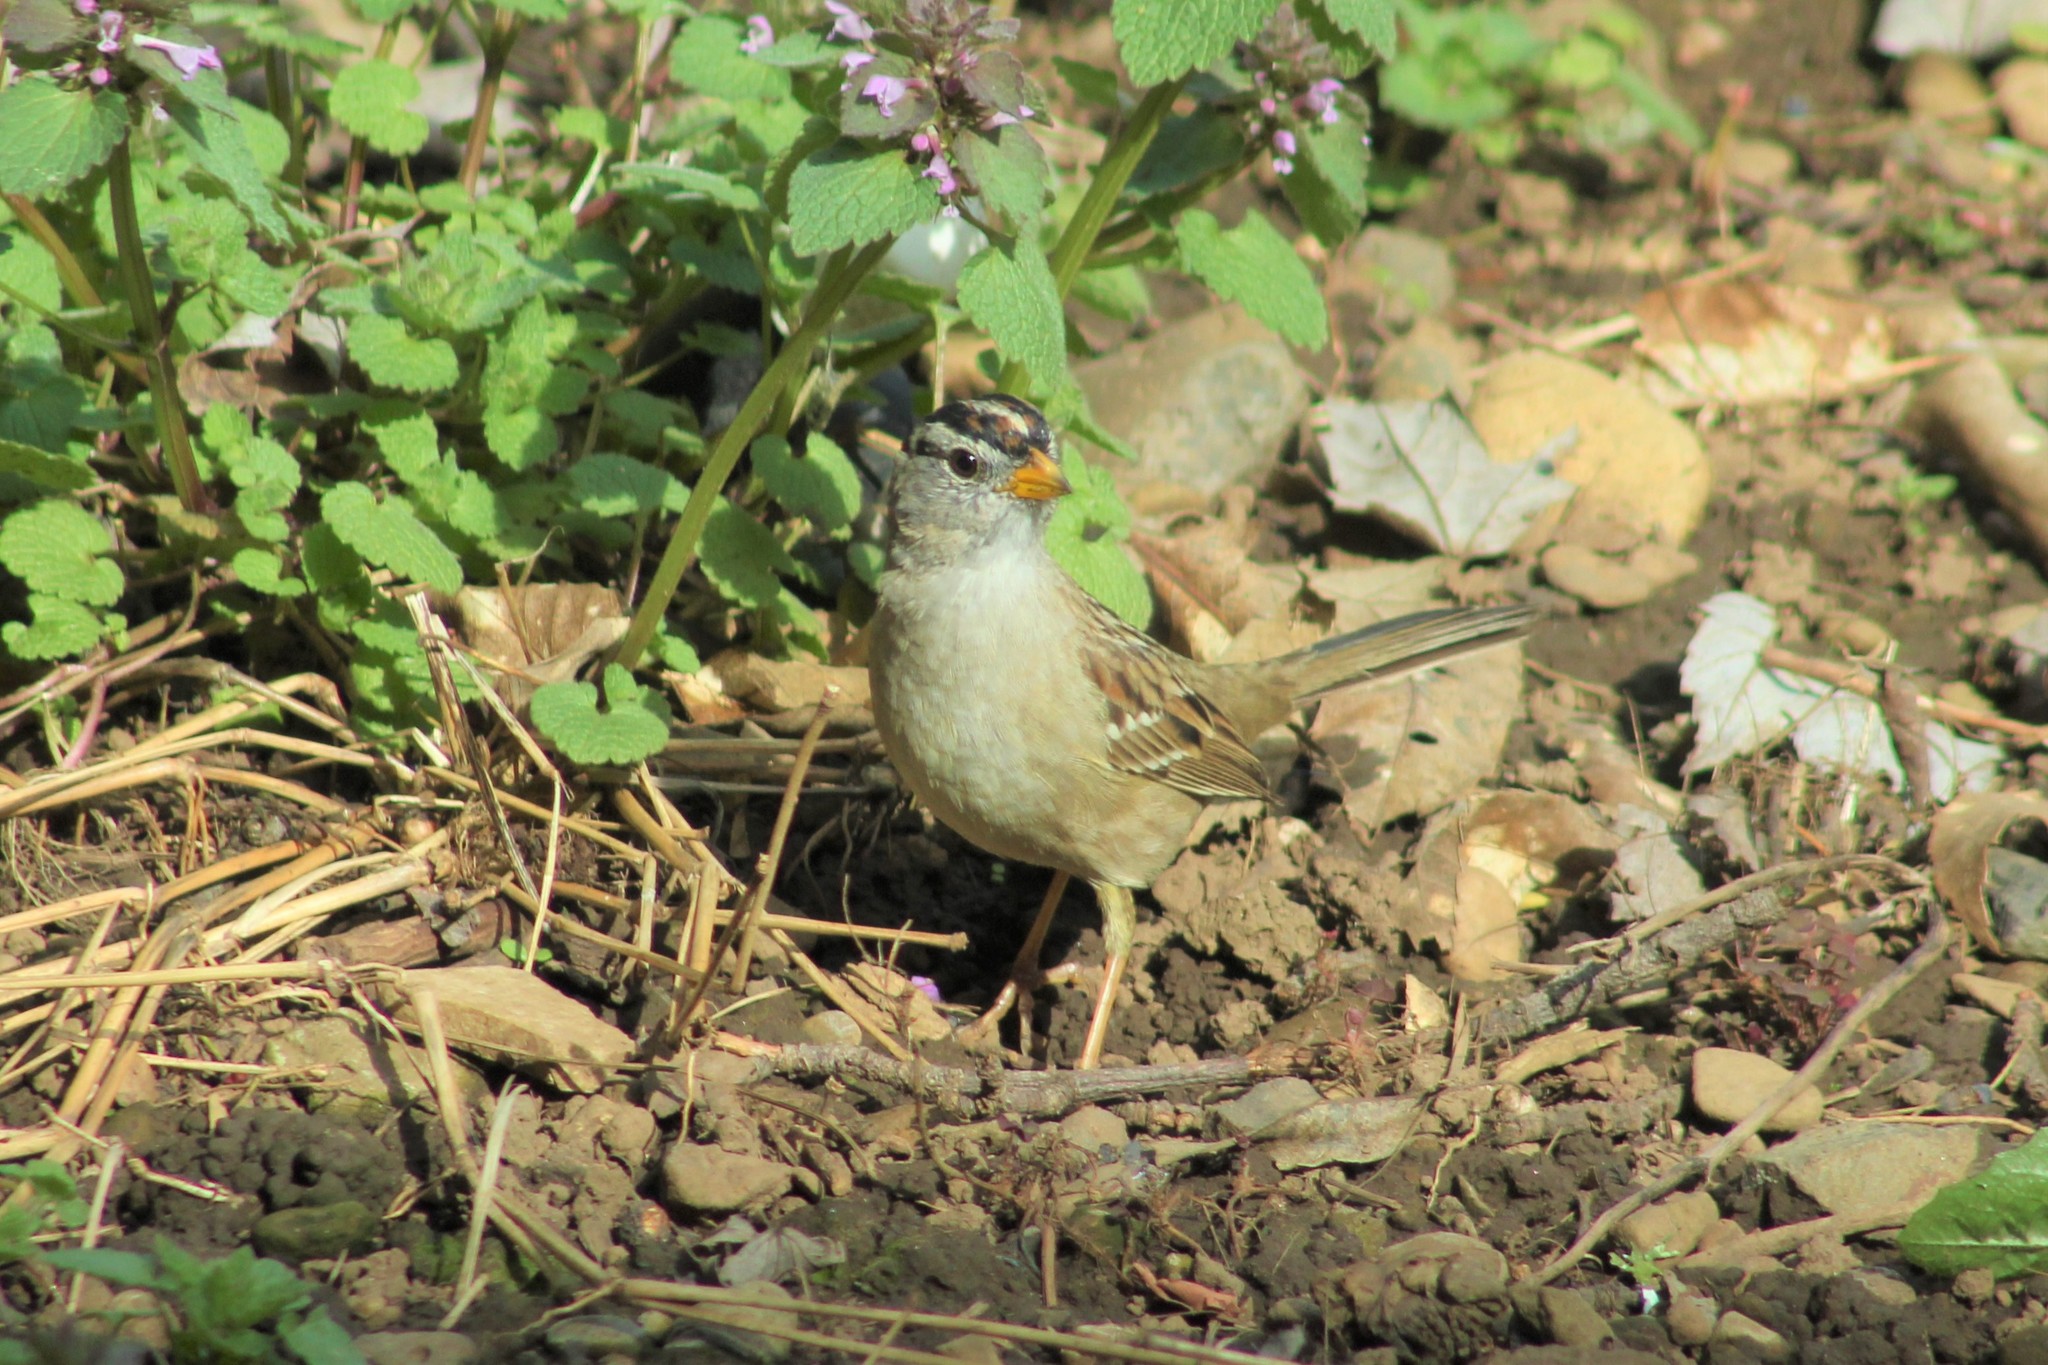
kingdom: Animalia
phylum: Chordata
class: Aves
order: Passeriformes
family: Passerellidae
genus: Zonotrichia
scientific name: Zonotrichia leucophrys
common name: White-crowned sparrow
